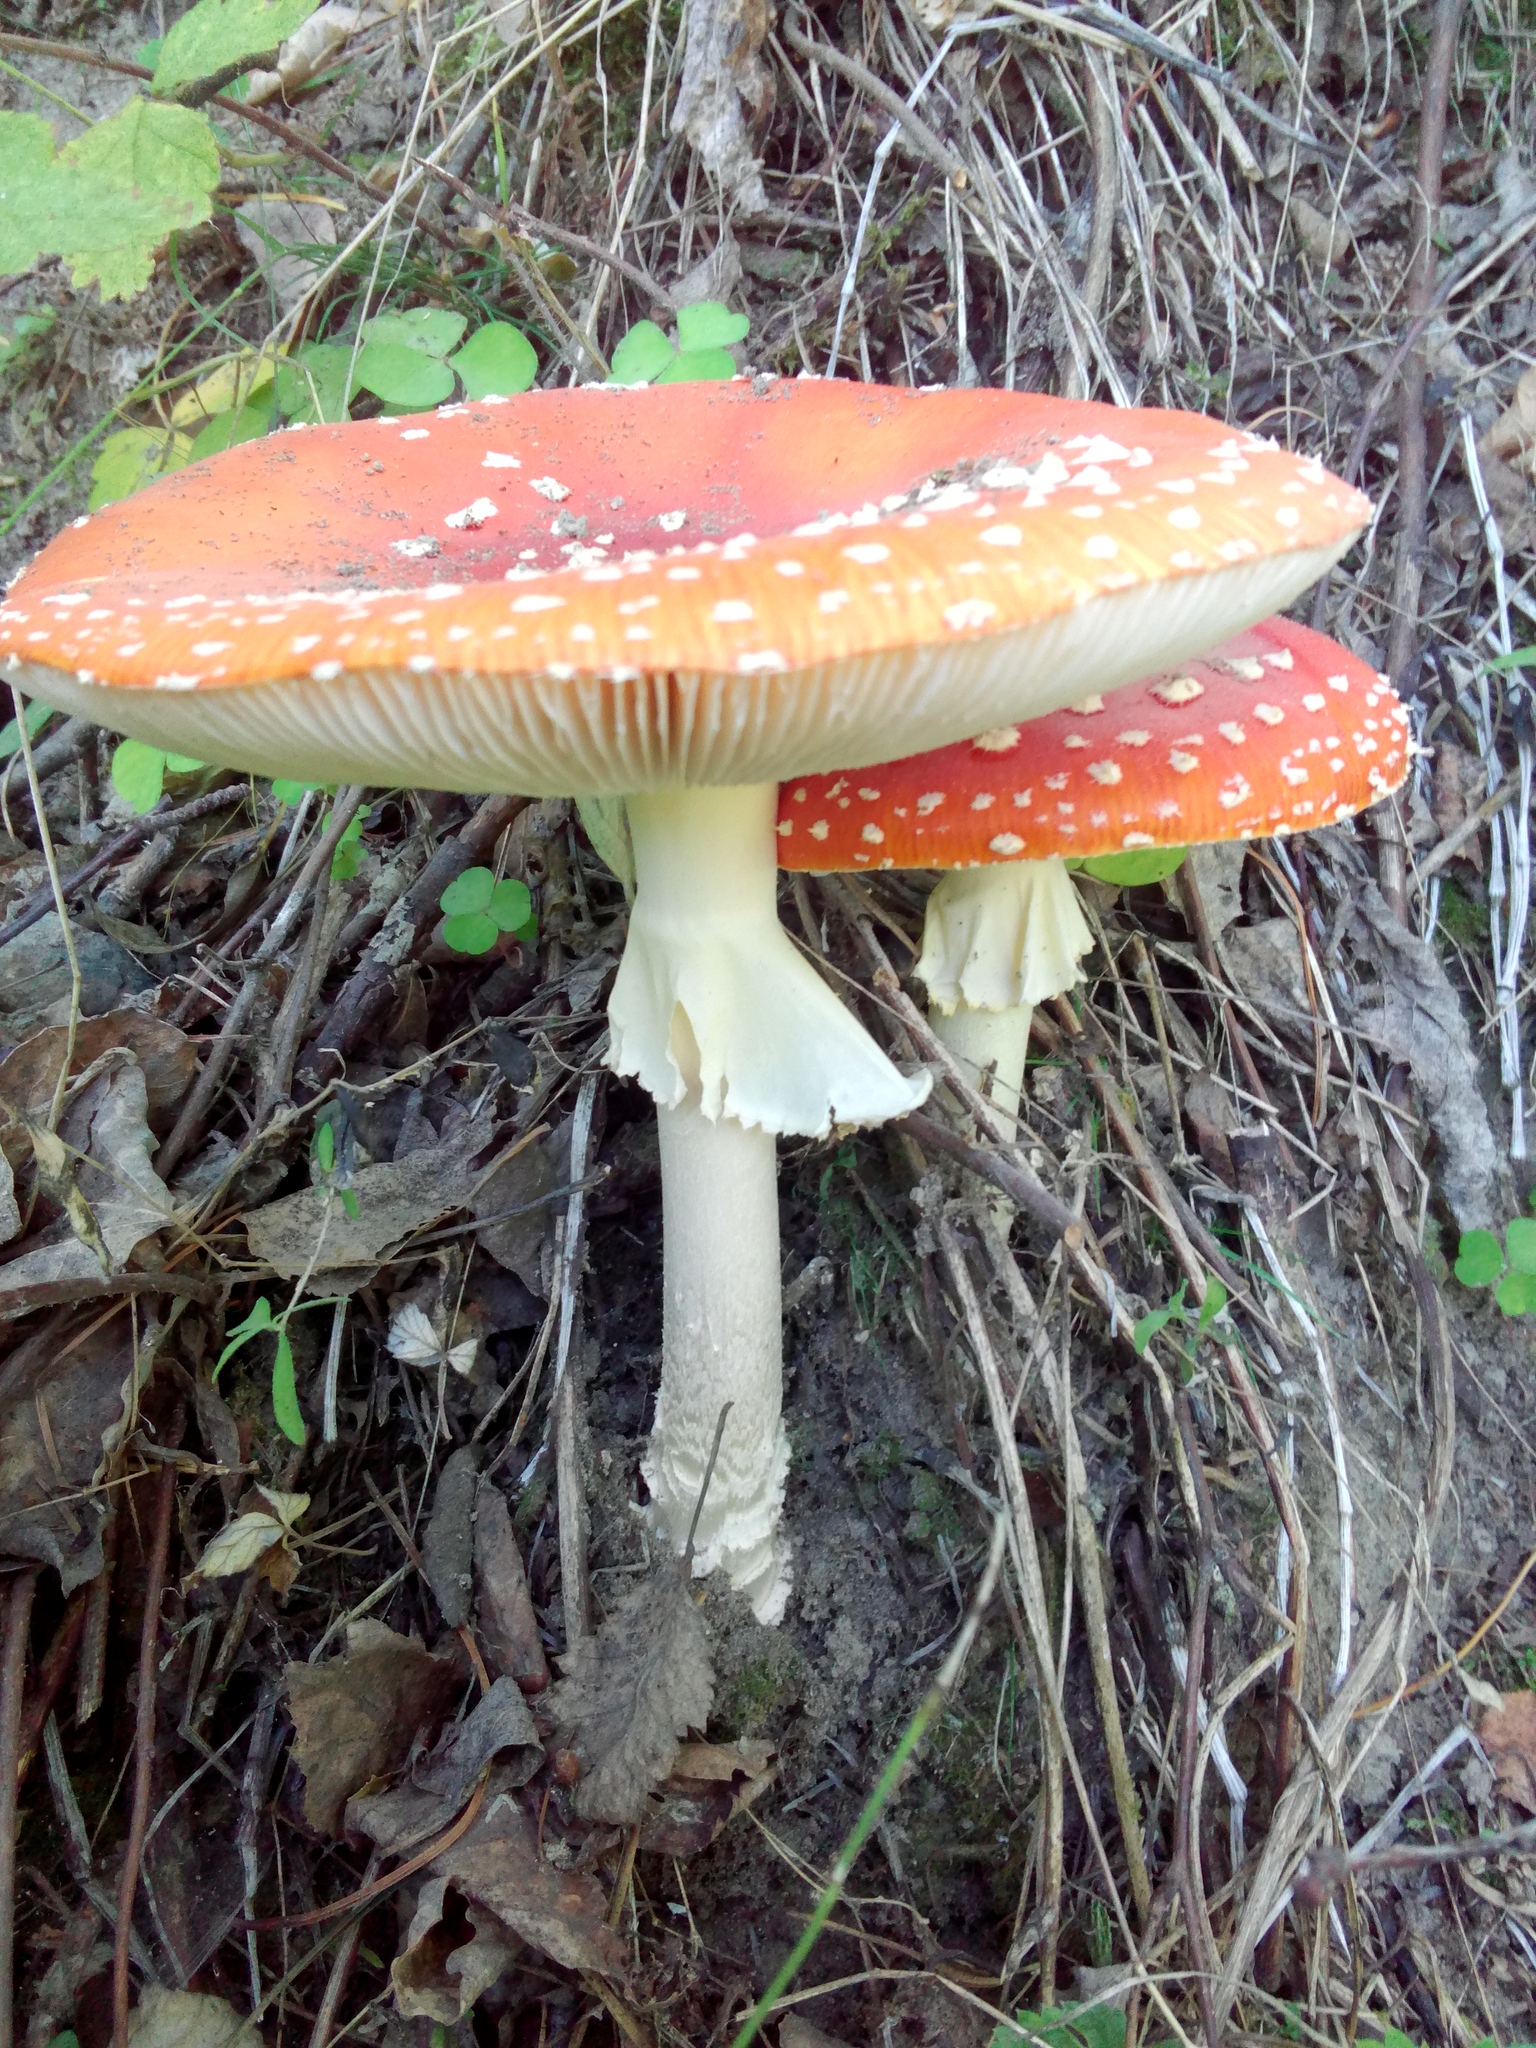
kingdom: Fungi
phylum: Basidiomycota
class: Agaricomycetes
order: Agaricales
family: Amanitaceae
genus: Amanita
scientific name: Amanita muscaria
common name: Fly agaric
